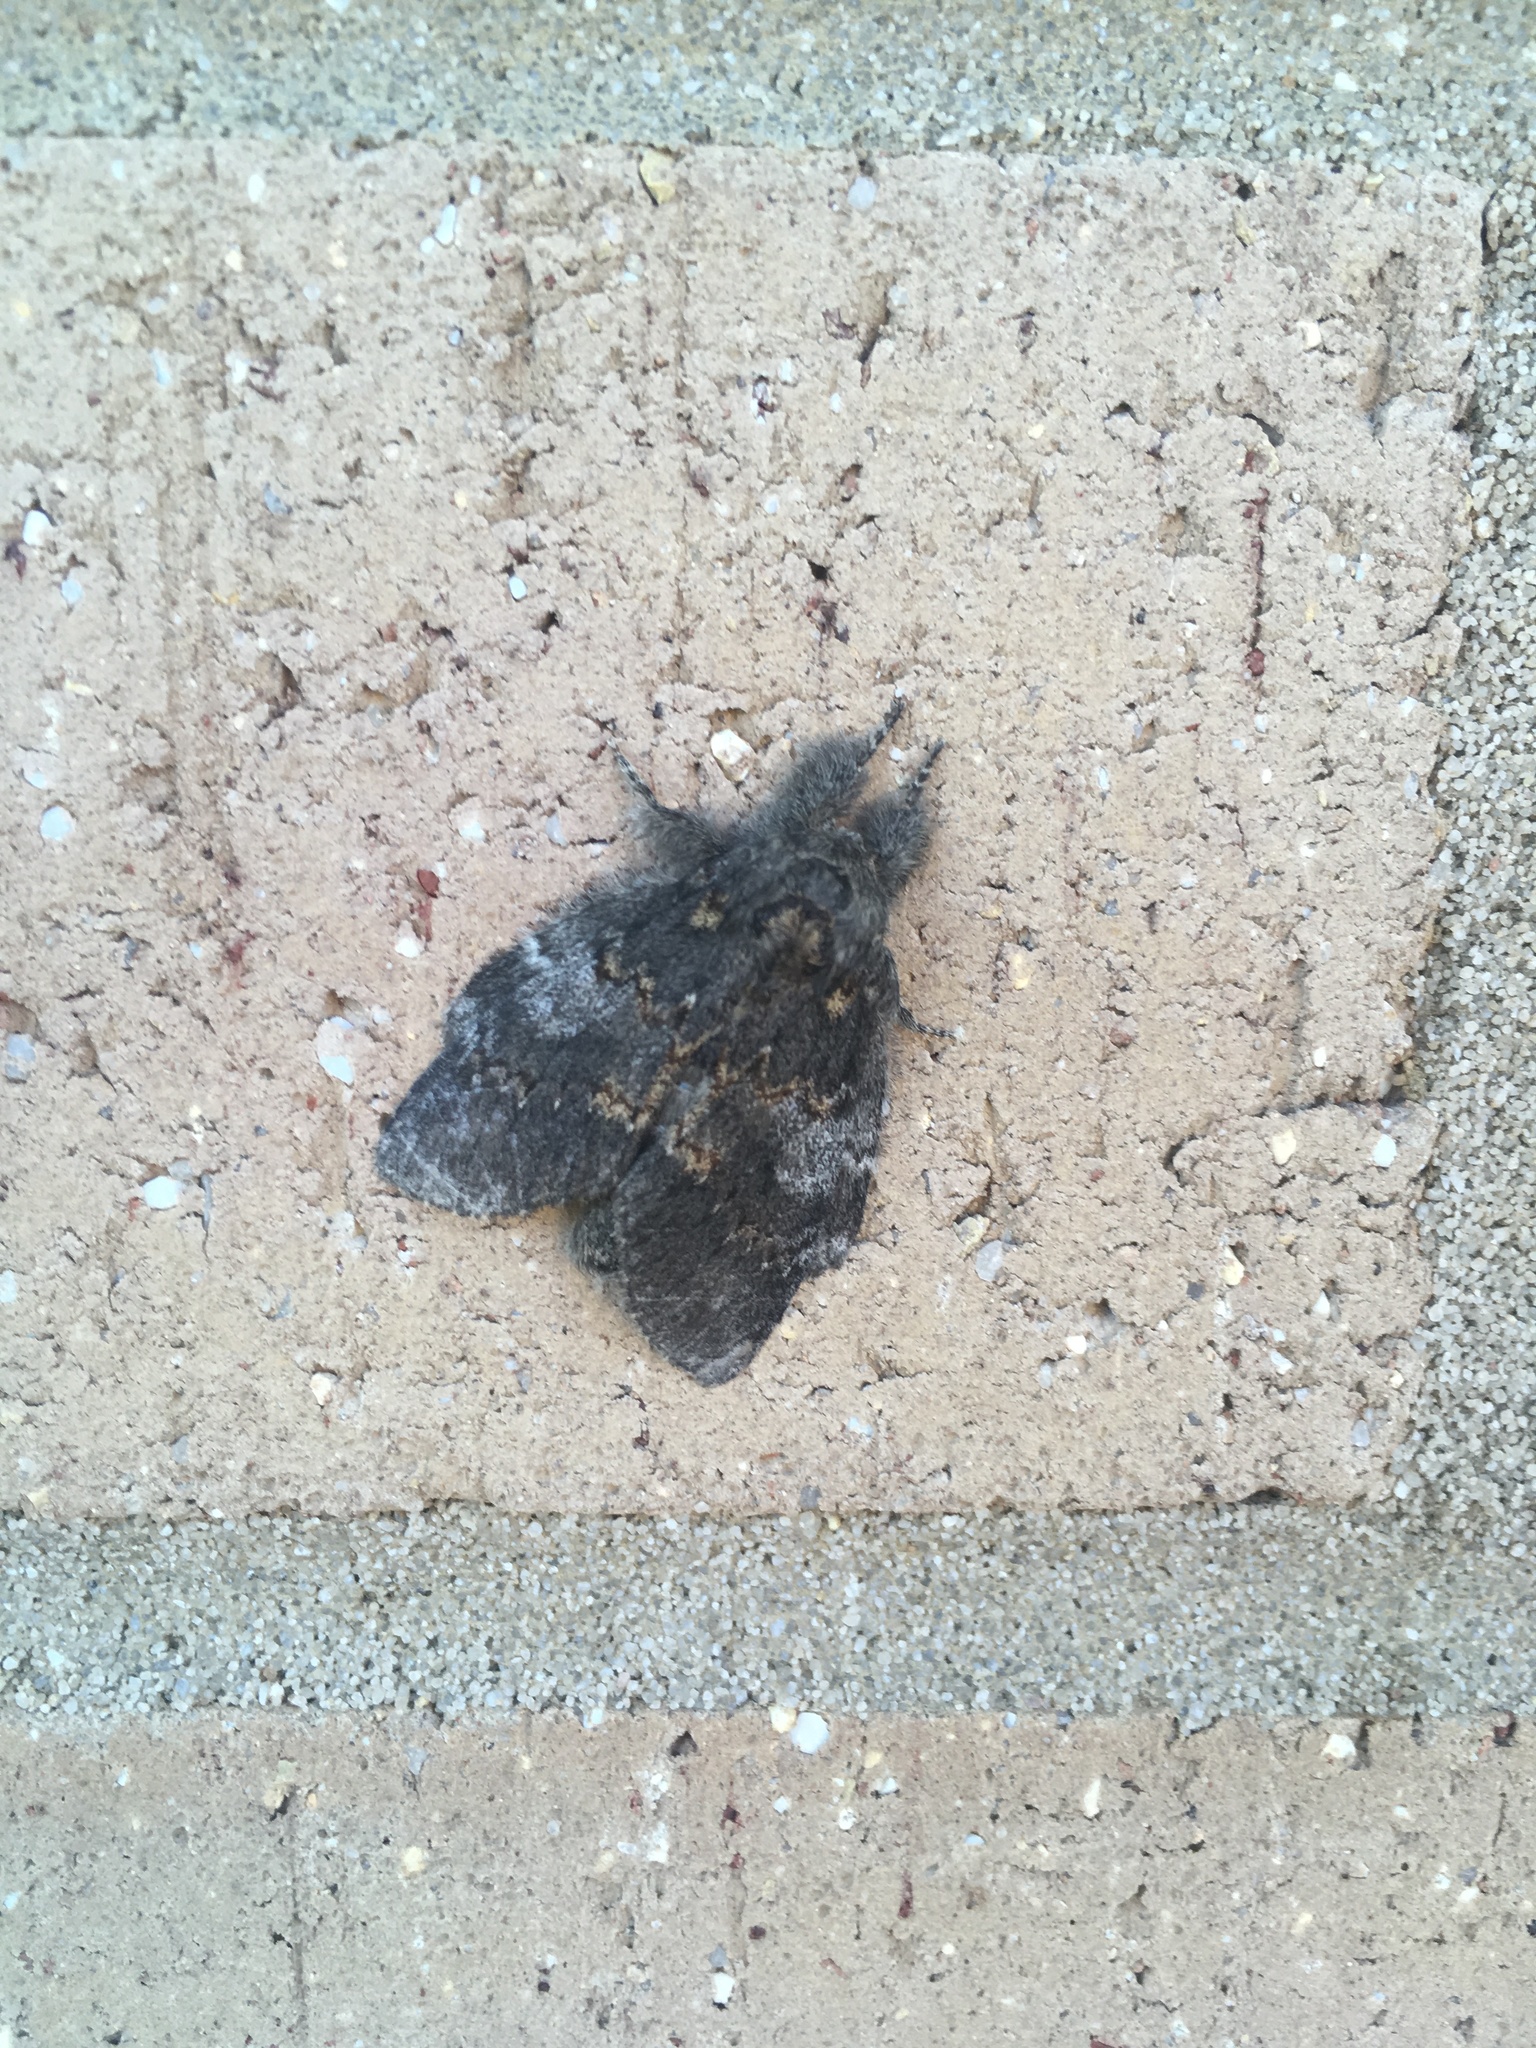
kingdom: Animalia
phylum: Arthropoda
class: Insecta
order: Lepidoptera
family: Notodontidae
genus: Peridea
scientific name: Peridea angulosa
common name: Angulose prominent
